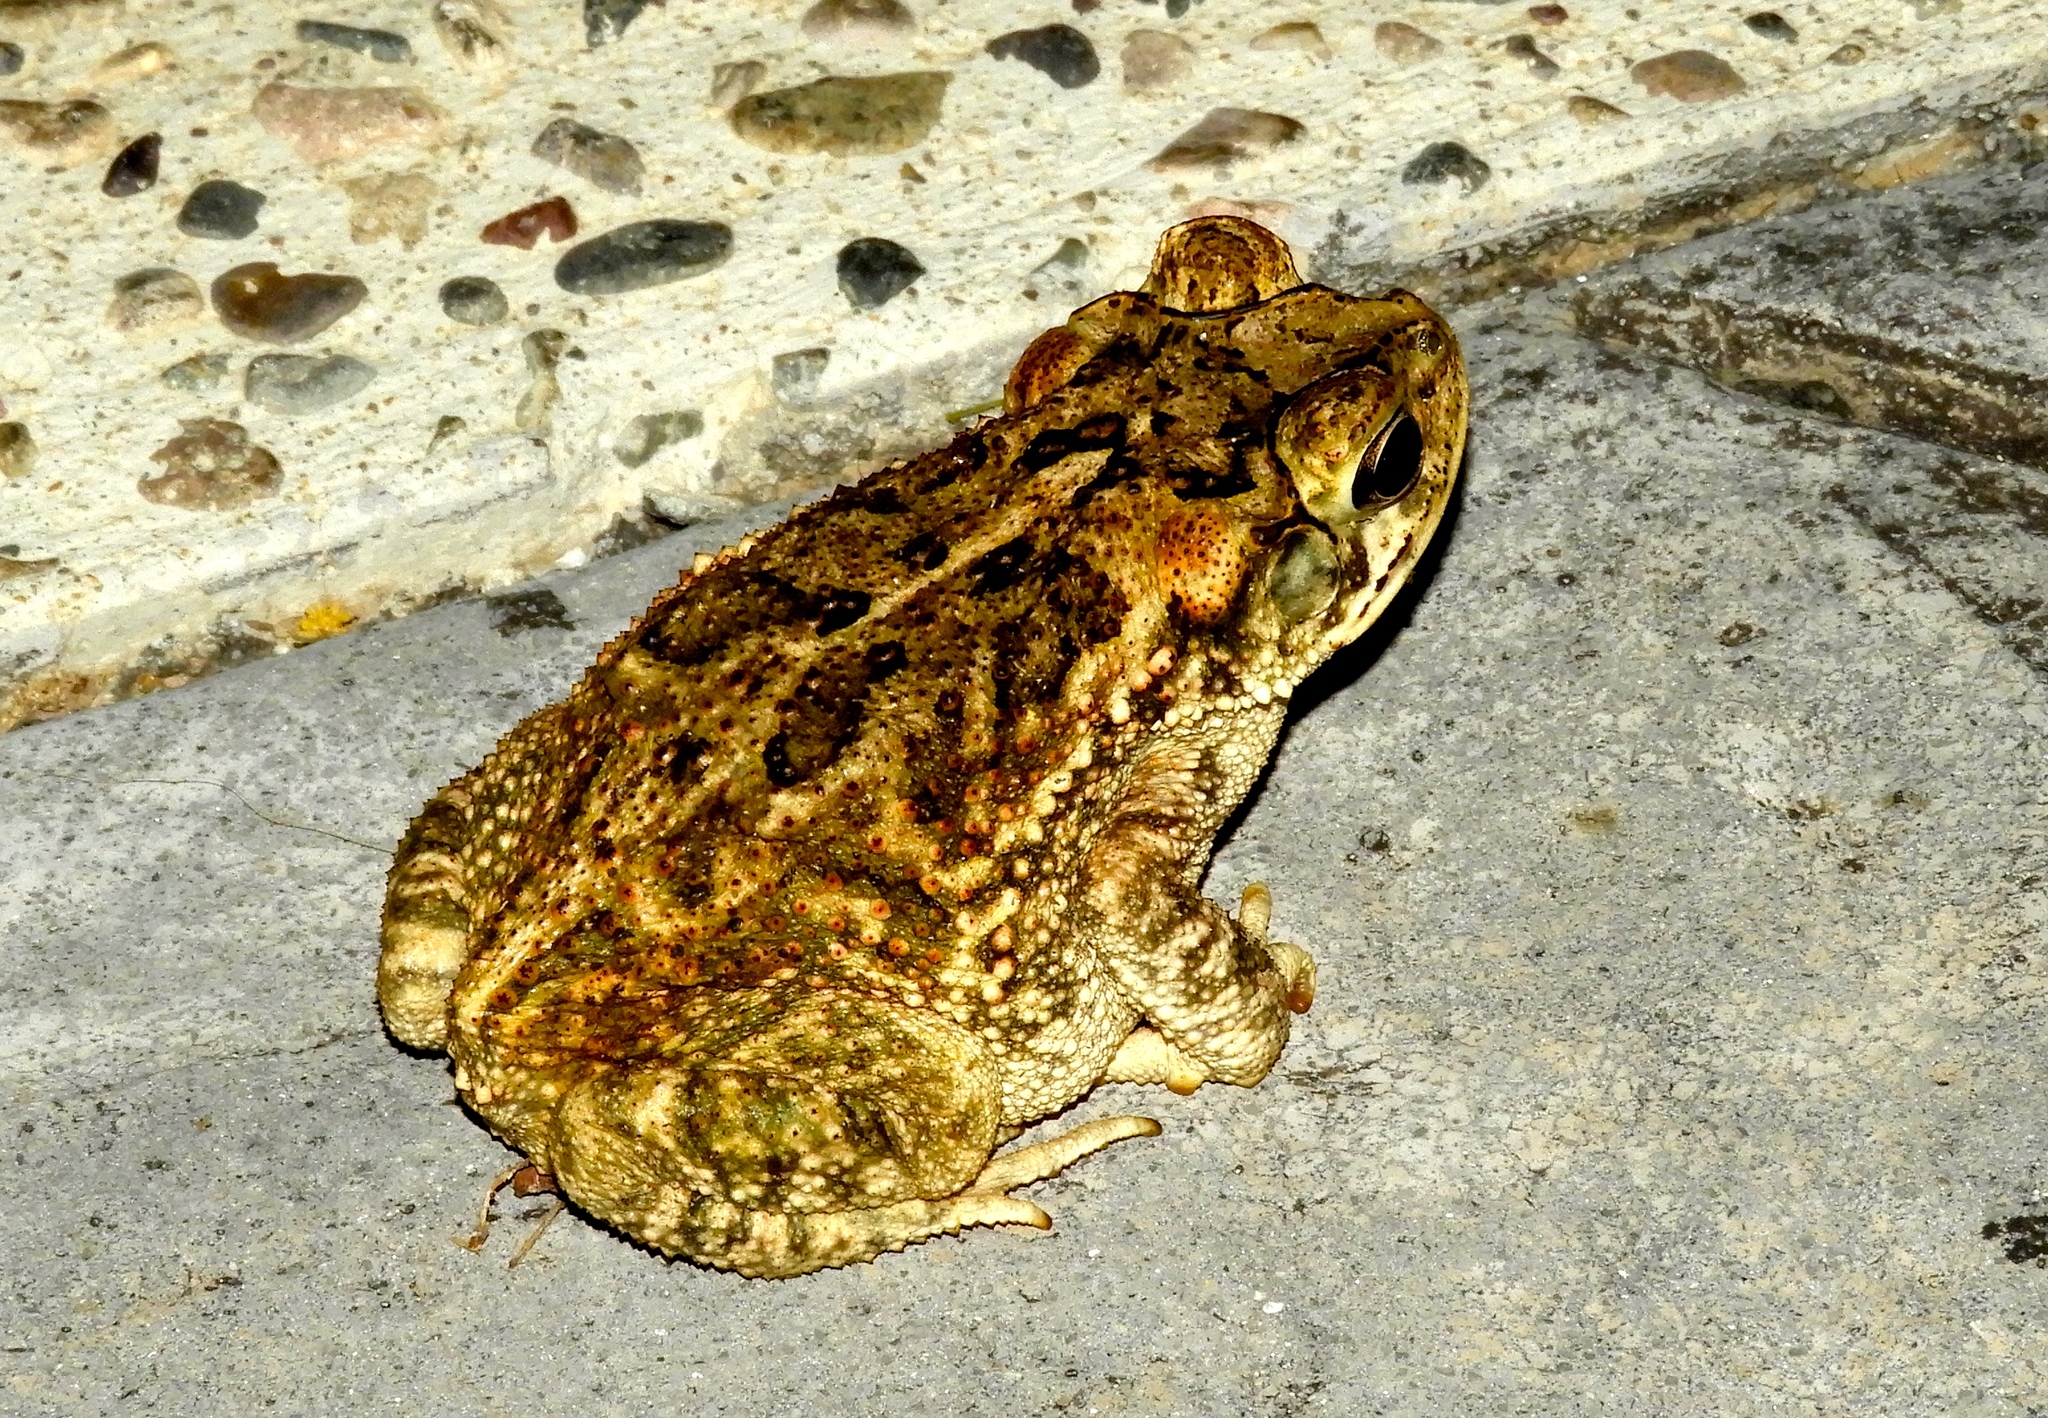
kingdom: Animalia
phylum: Chordata
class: Amphibia
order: Anura
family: Bufonidae
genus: Incilius
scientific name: Incilius mazatlanensis
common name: Sinaloa toad
